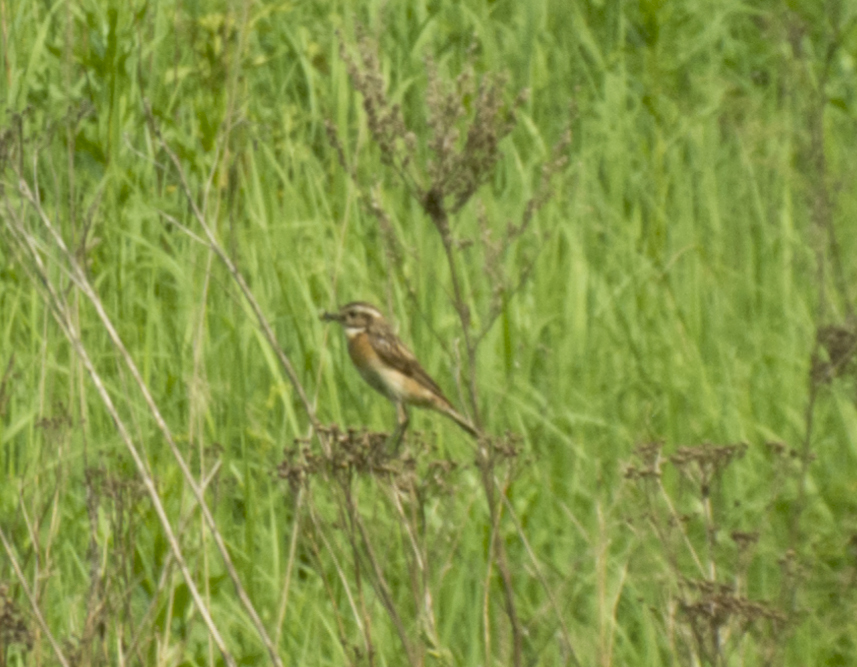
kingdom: Animalia
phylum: Chordata
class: Aves
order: Passeriformes
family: Muscicapidae
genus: Saxicola
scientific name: Saxicola rubetra
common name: Whinchat
